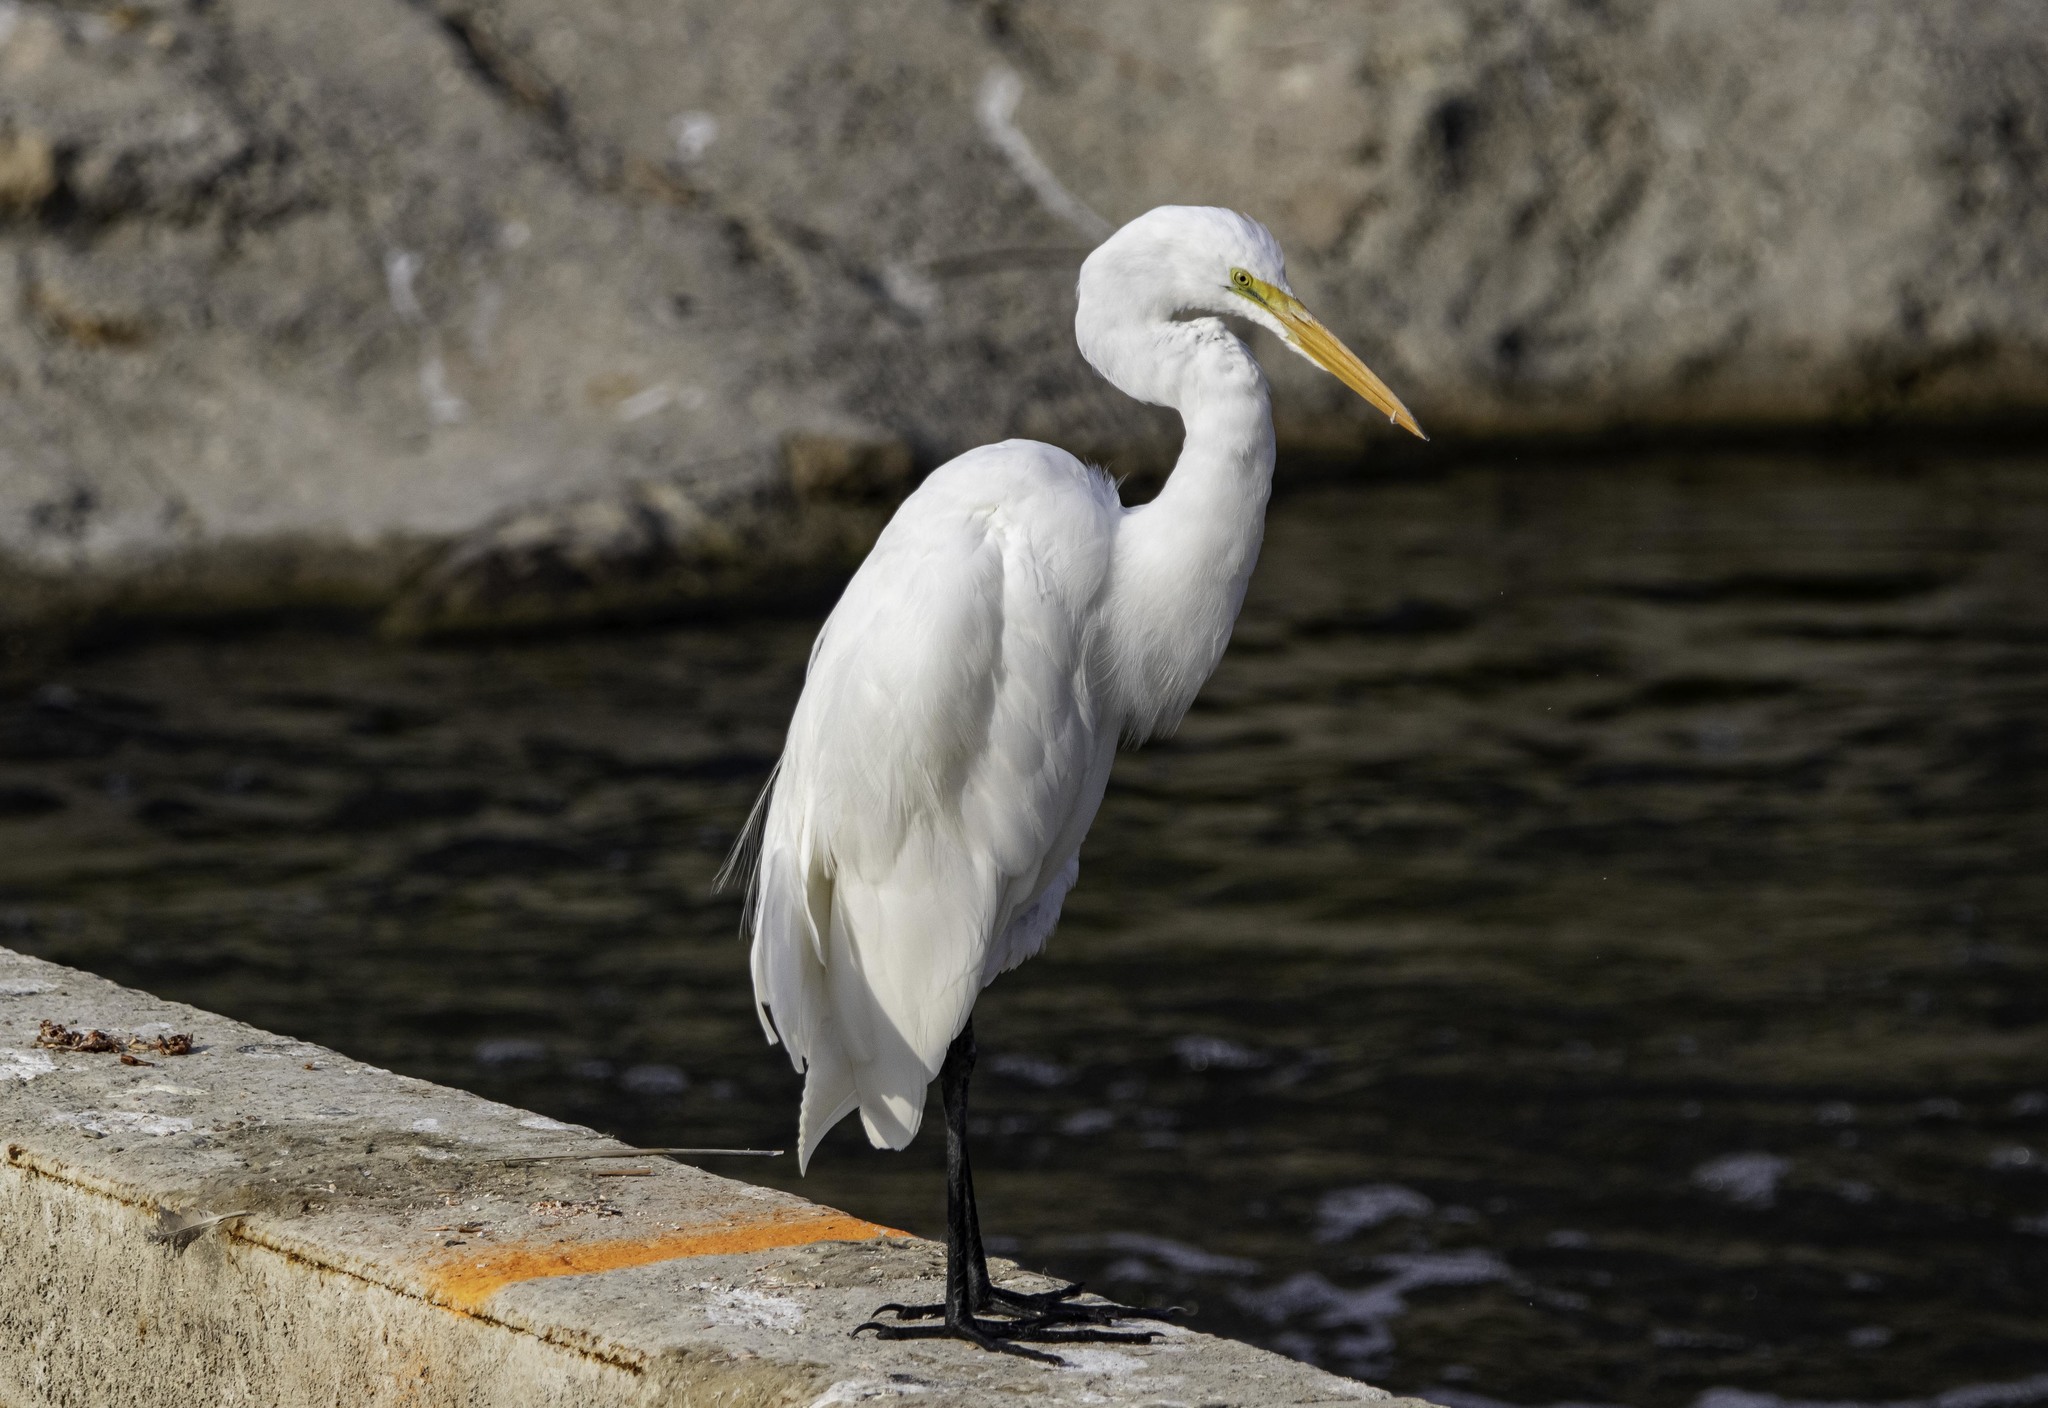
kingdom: Animalia
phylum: Chordata
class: Aves
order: Pelecaniformes
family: Ardeidae
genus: Ardea
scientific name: Ardea alba
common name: Great egret
